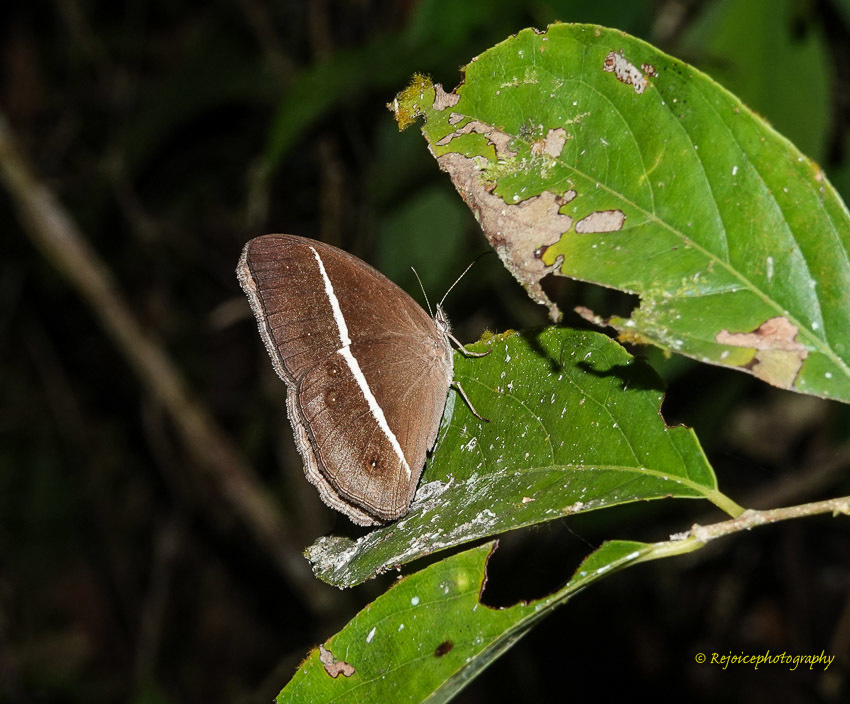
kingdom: Animalia
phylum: Arthropoda
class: Insecta
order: Lepidoptera
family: Nymphalidae
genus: Orsotriaena
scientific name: Orsotriaena medus
